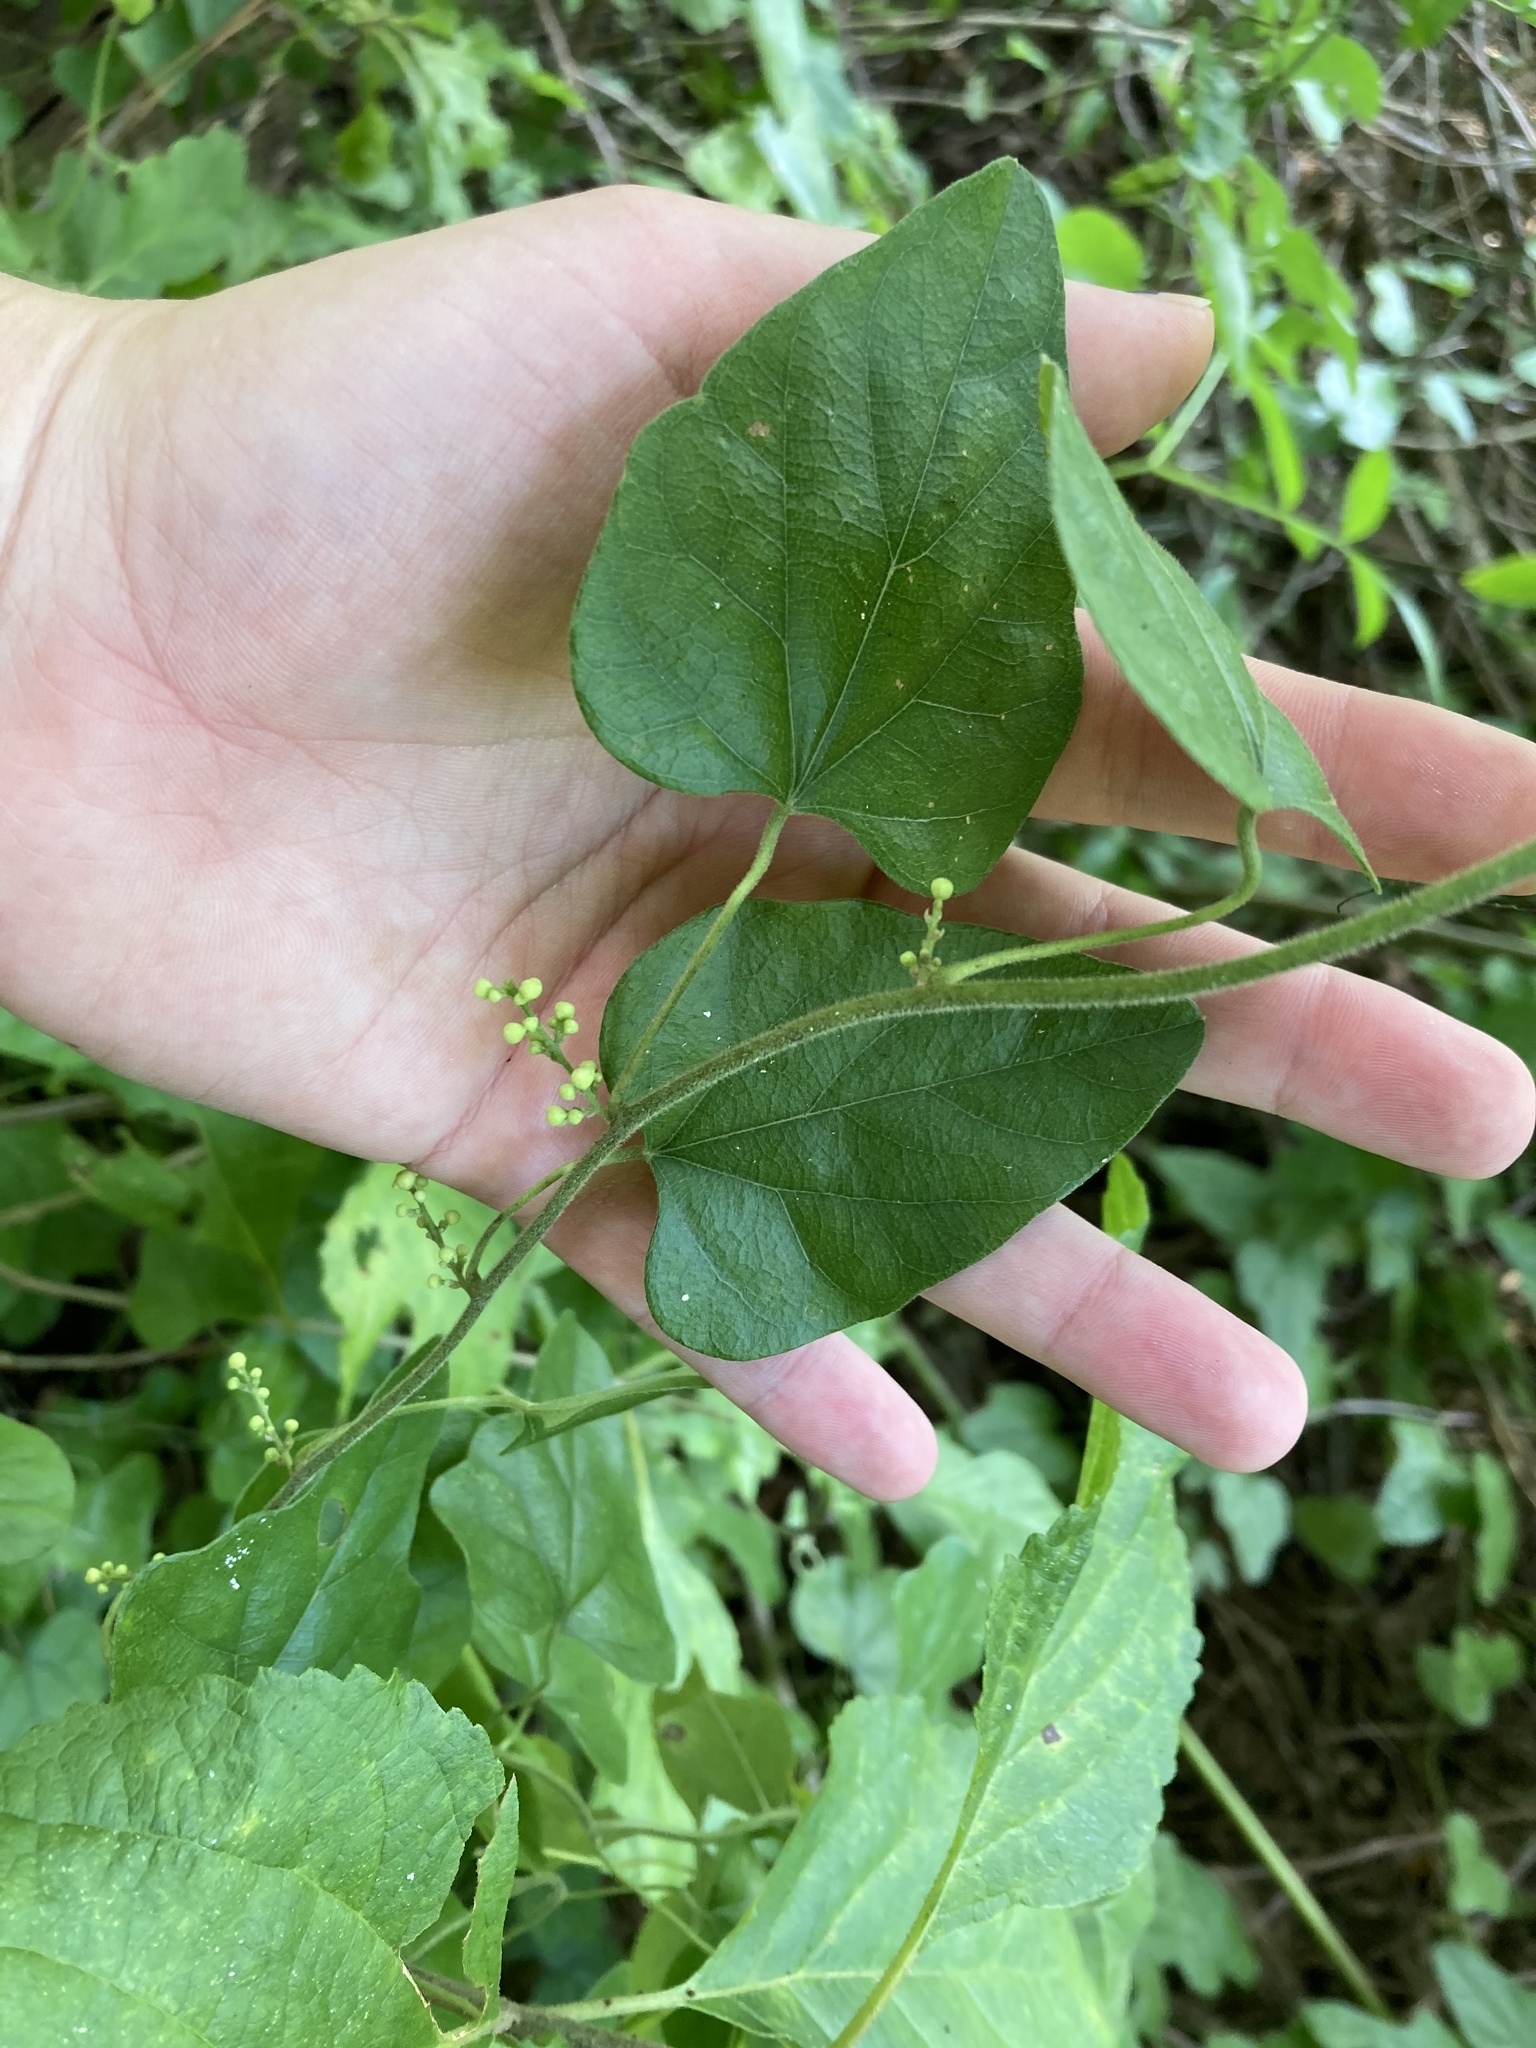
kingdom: Plantae
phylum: Tracheophyta
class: Magnoliopsida
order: Ranunculales
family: Menispermaceae
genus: Cocculus
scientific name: Cocculus carolinus
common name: Carolina moonseed
